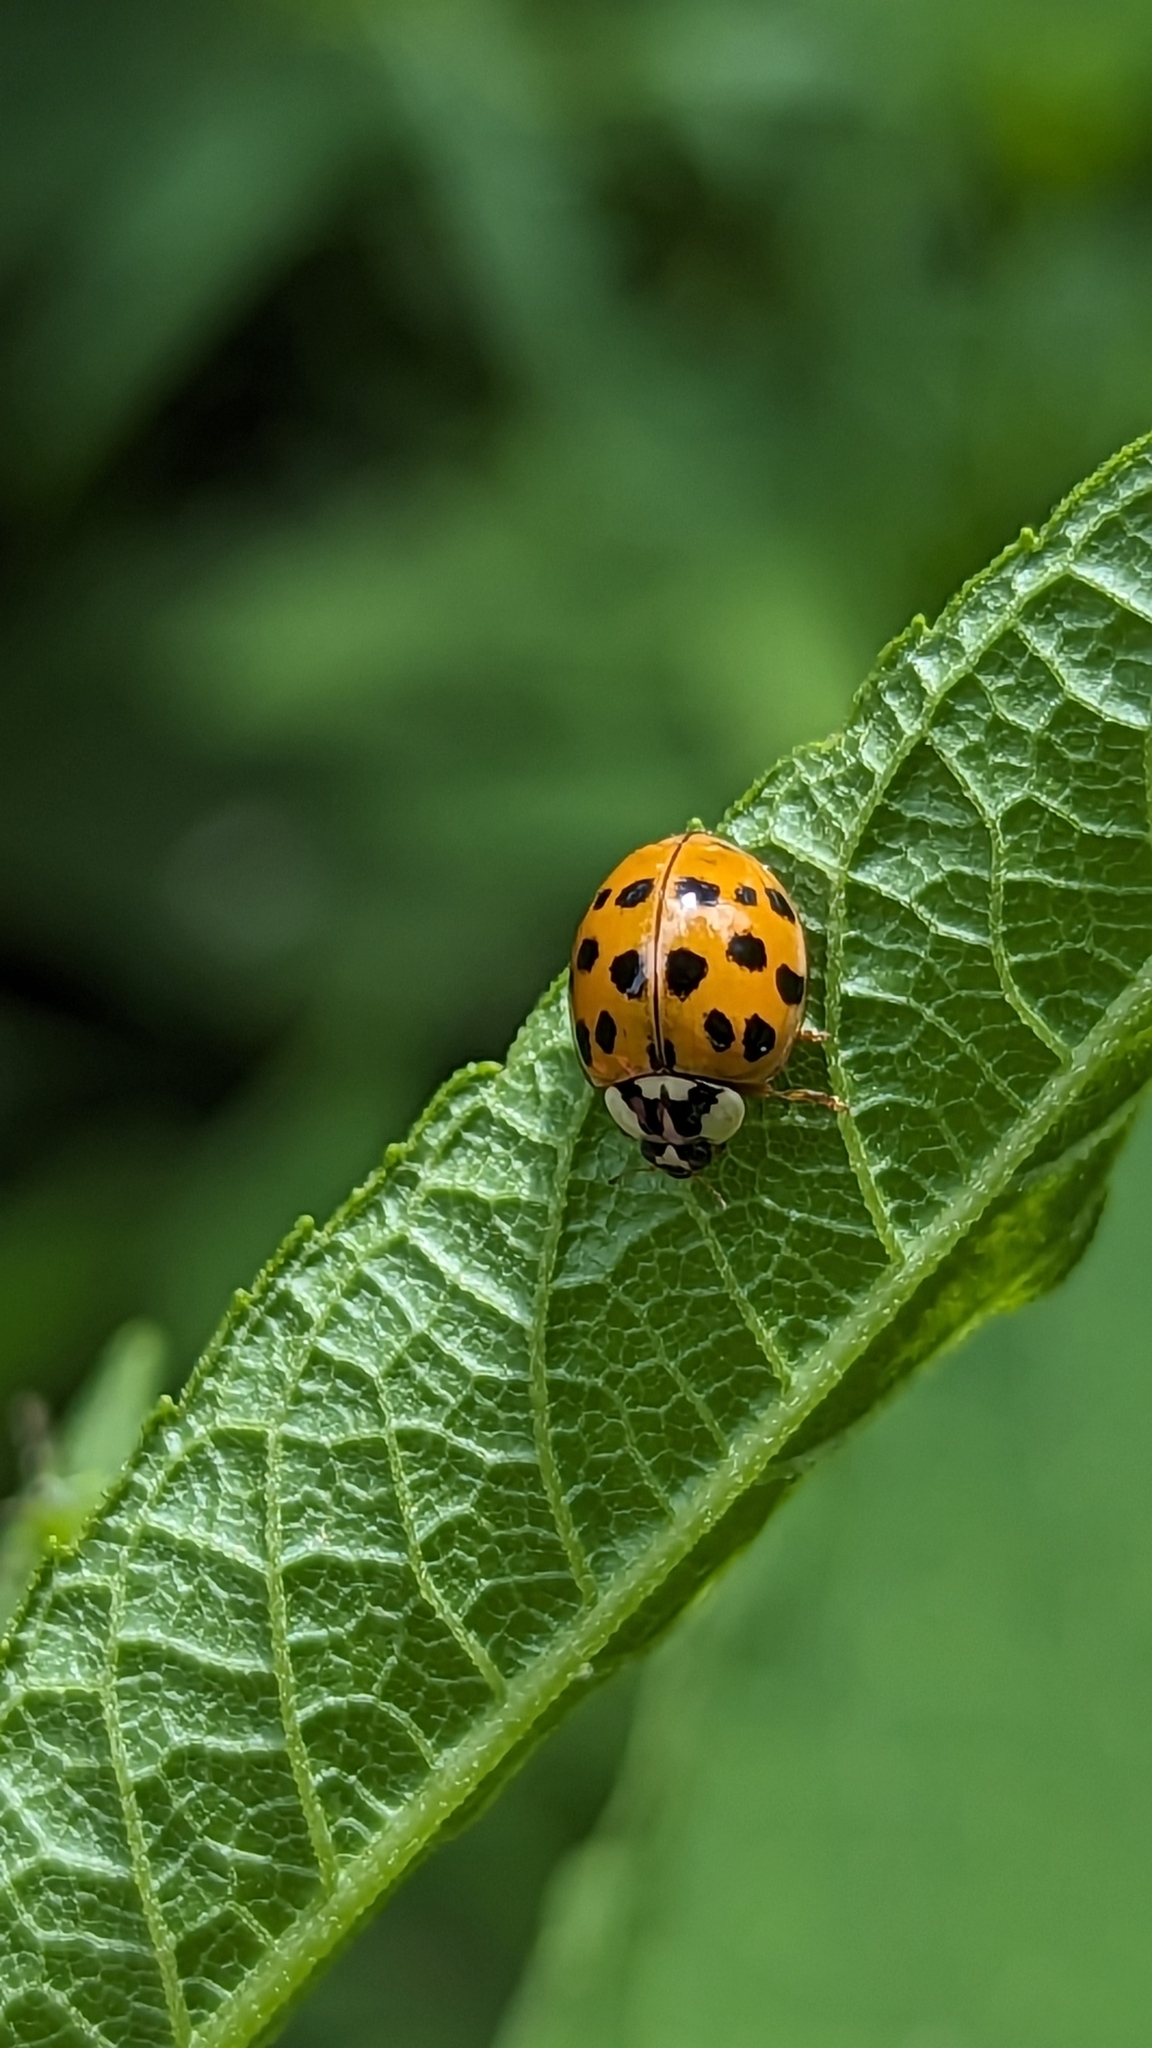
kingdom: Animalia
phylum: Arthropoda
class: Insecta
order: Coleoptera
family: Coccinellidae
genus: Harmonia
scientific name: Harmonia axyridis
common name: Harlequin ladybird
